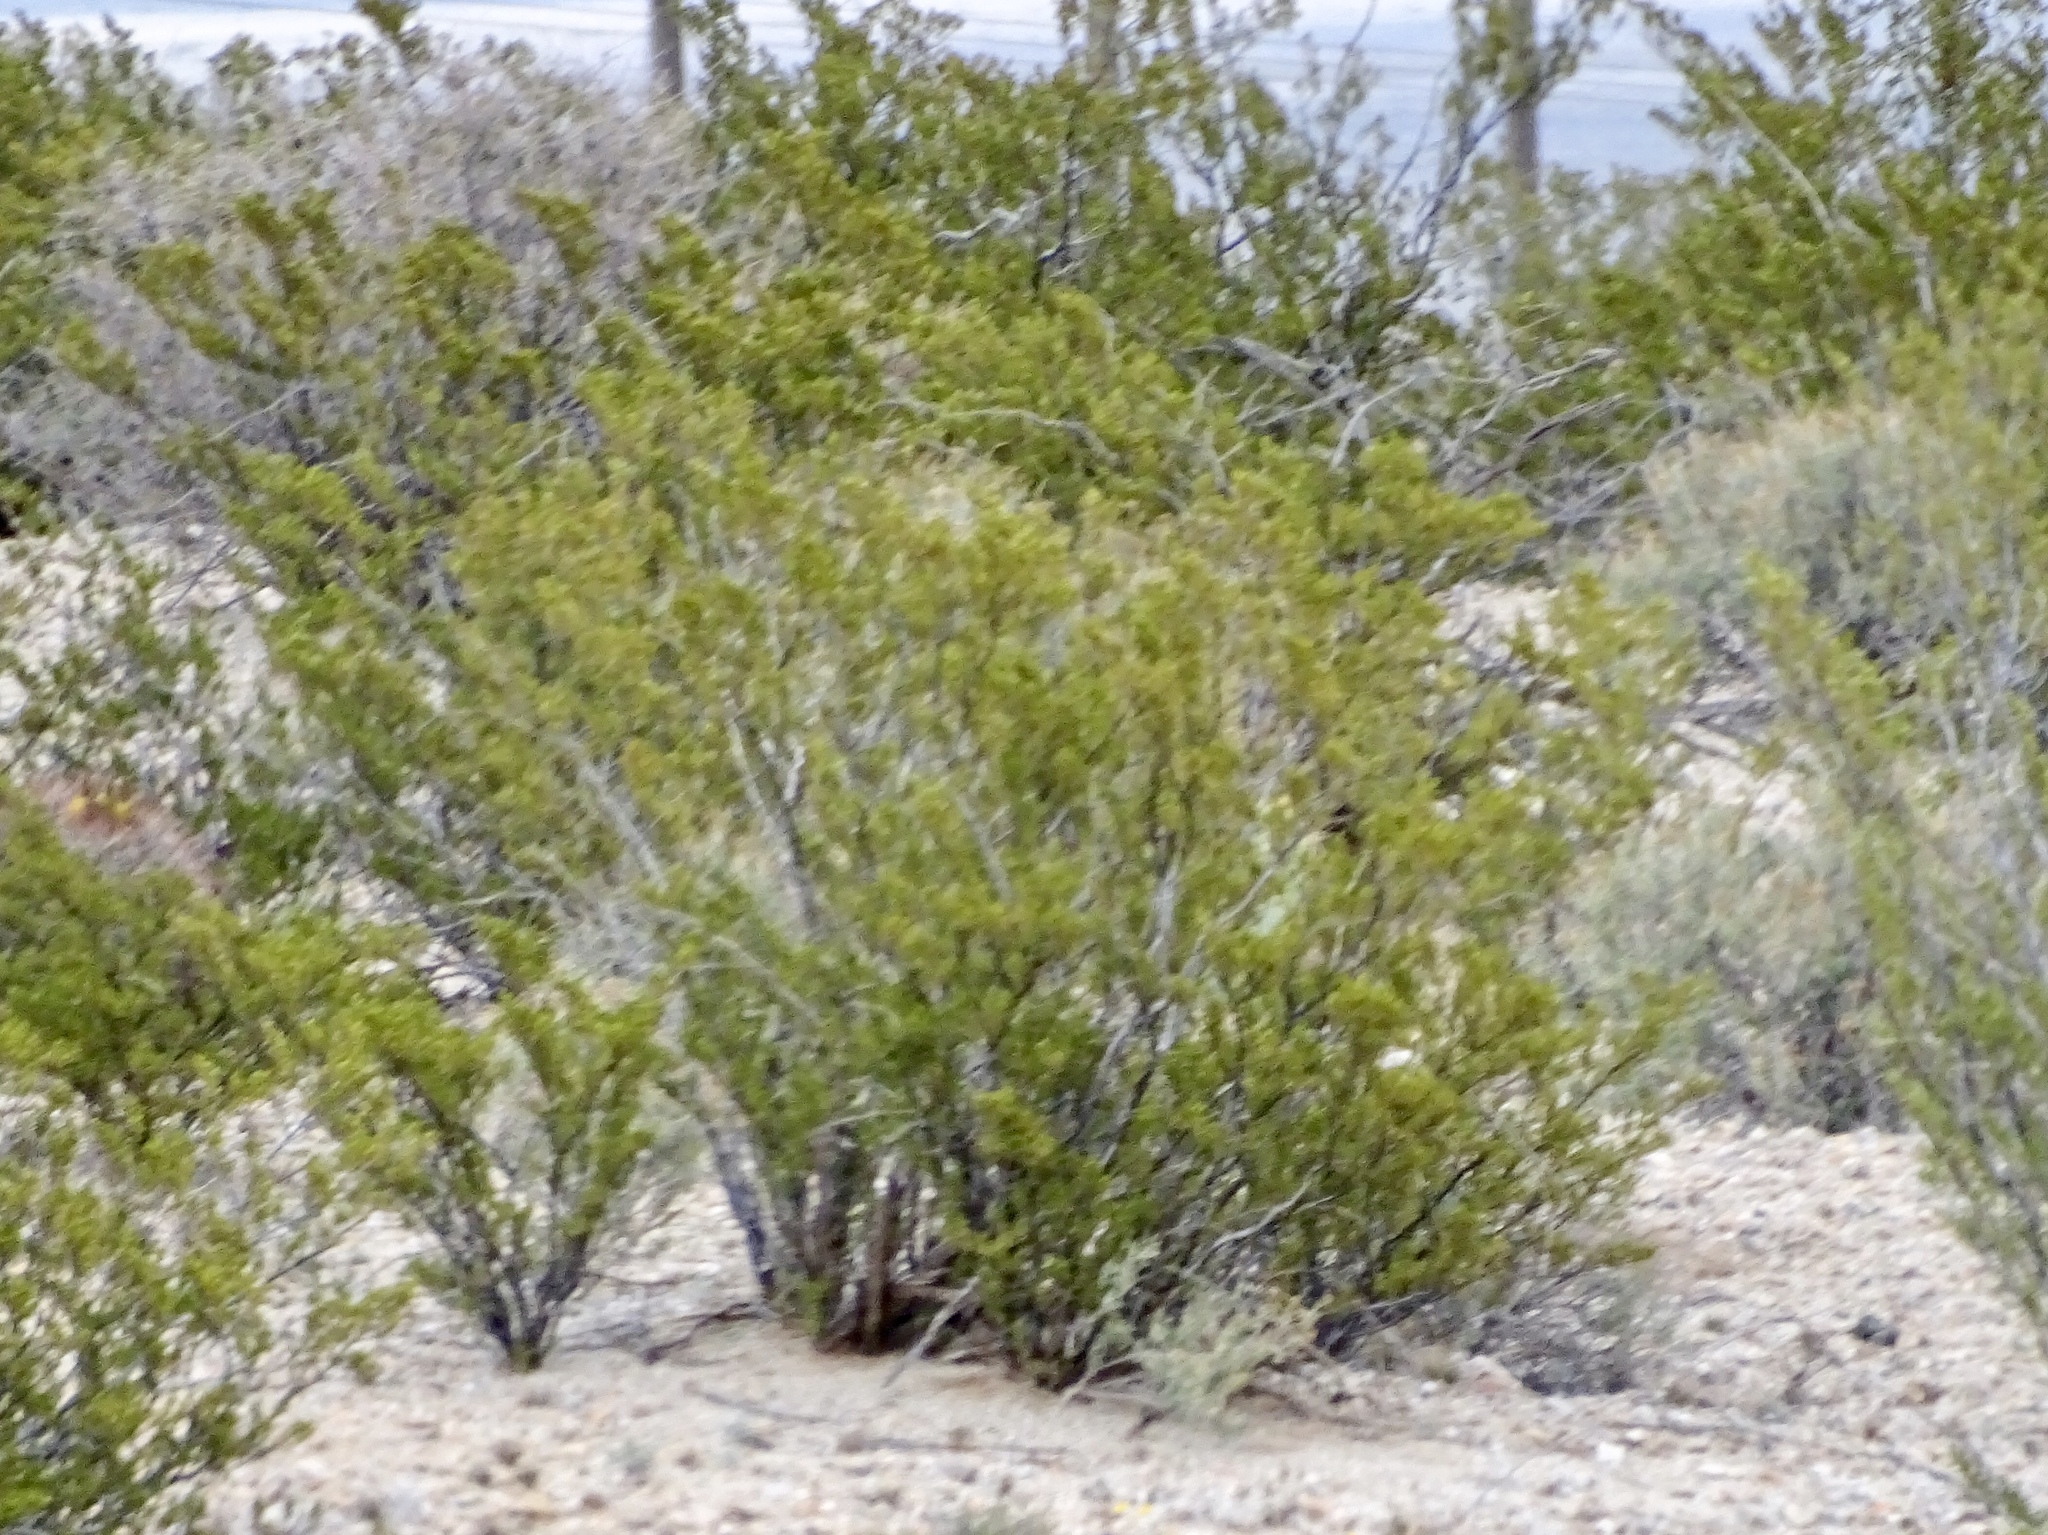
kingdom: Plantae
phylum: Tracheophyta
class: Magnoliopsida
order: Zygophyllales
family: Zygophyllaceae
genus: Larrea
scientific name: Larrea tridentata
